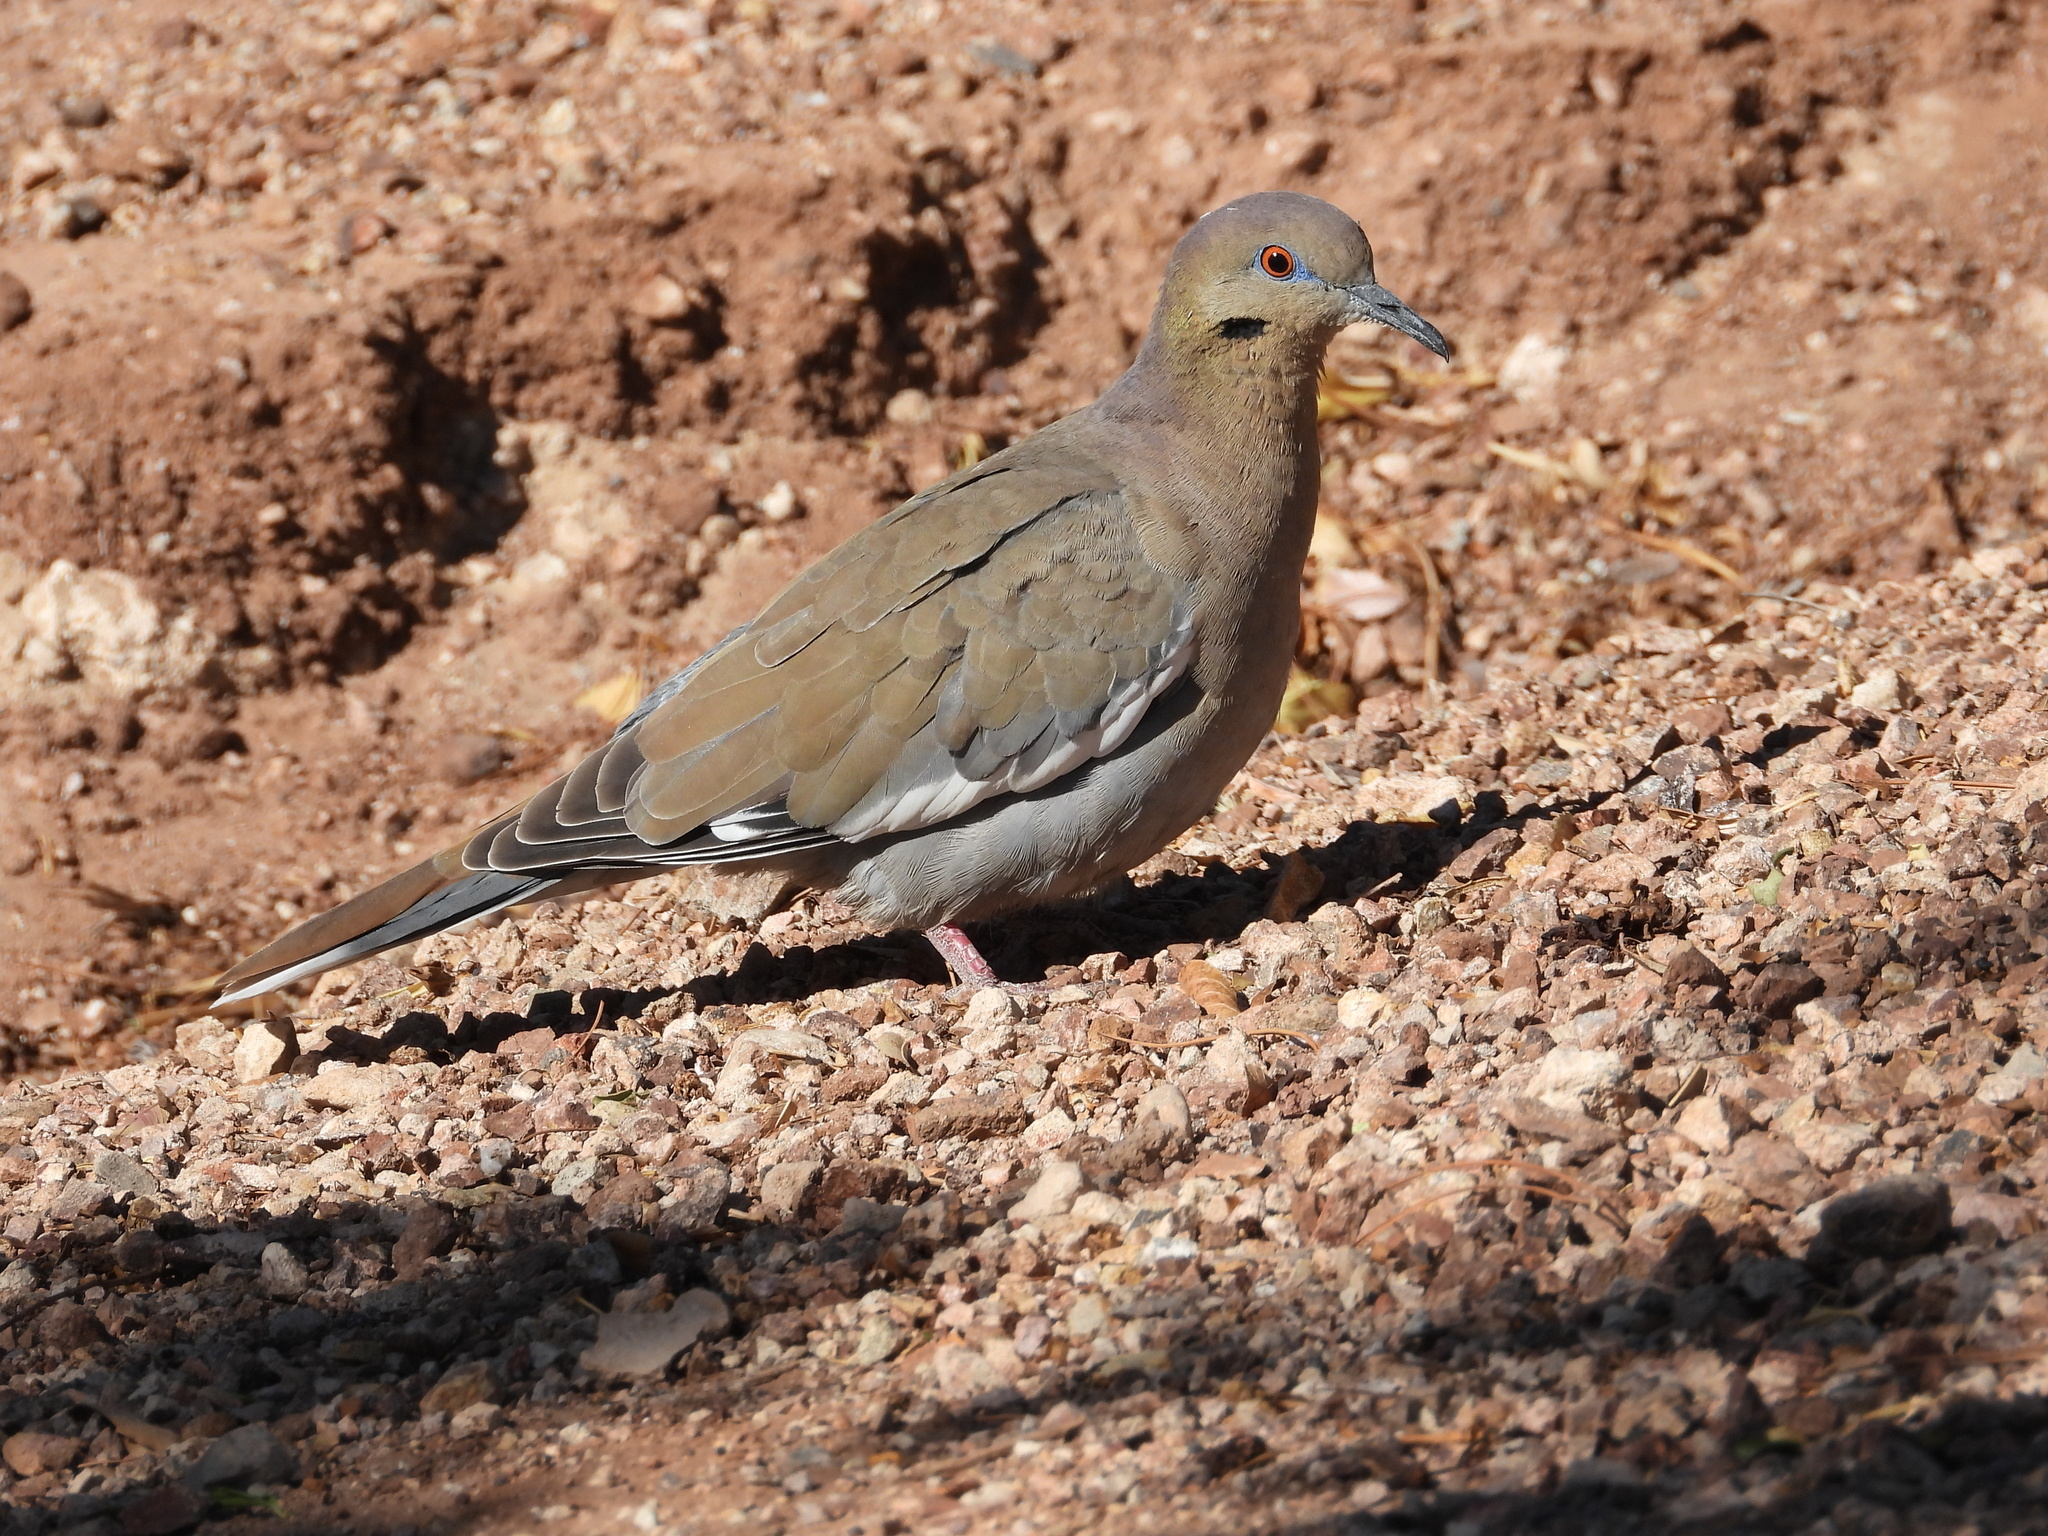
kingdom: Animalia
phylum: Chordata
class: Aves
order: Columbiformes
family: Columbidae
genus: Zenaida
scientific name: Zenaida asiatica
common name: White-winged dove
